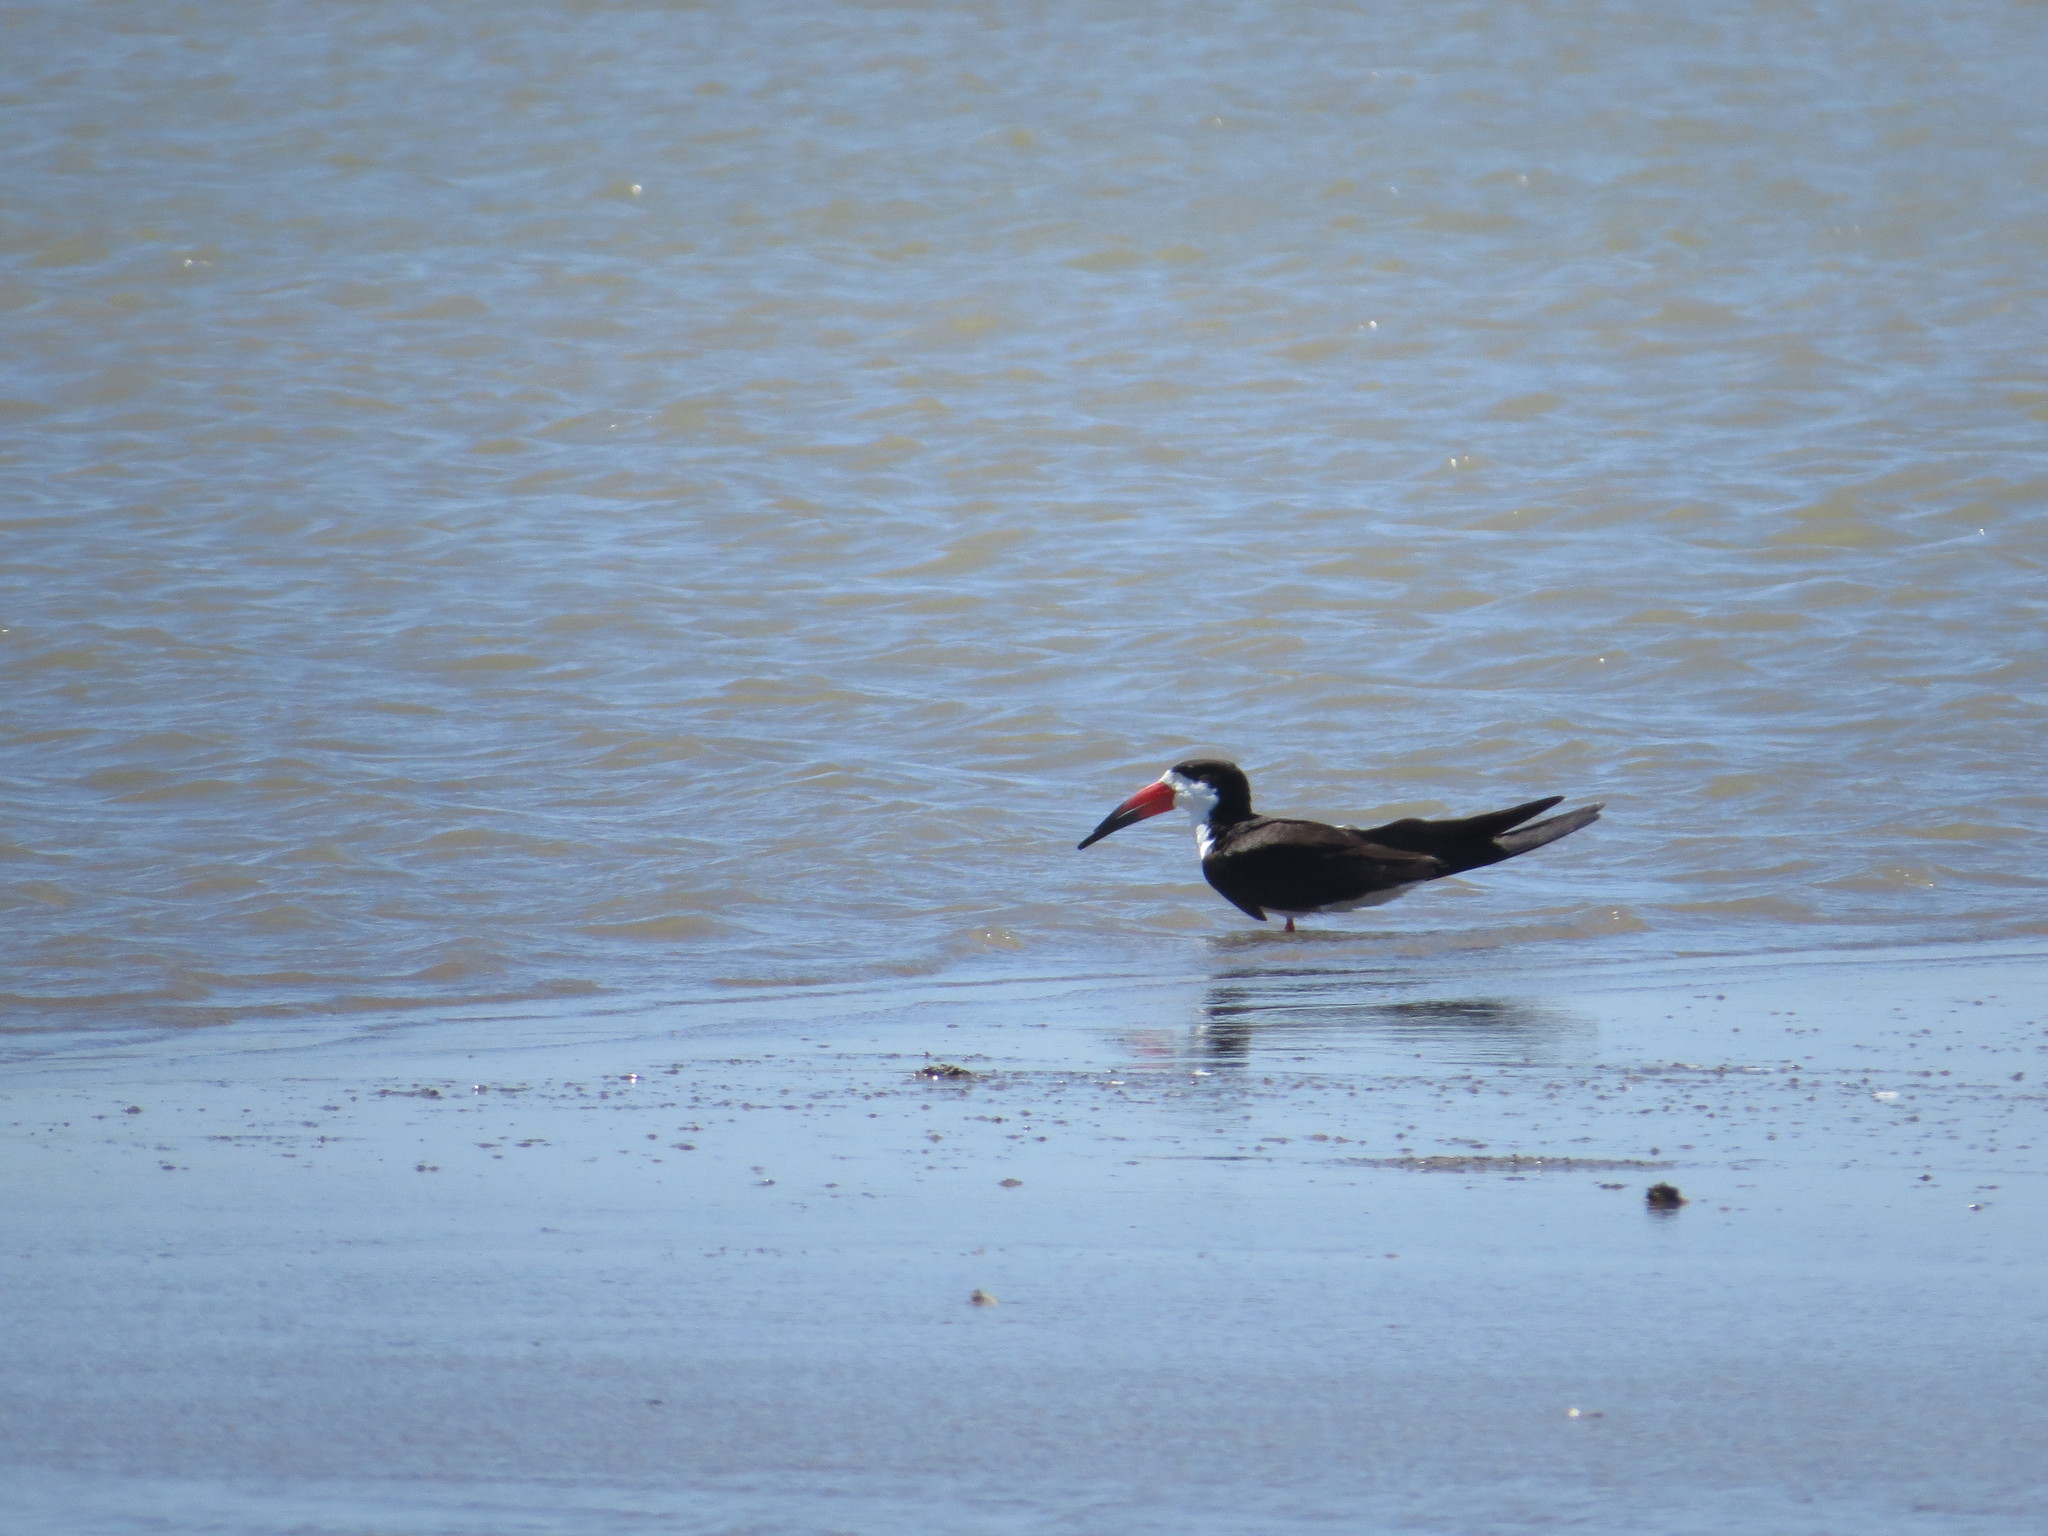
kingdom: Animalia
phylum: Chordata
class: Aves
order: Charadriiformes
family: Laridae
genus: Rynchops
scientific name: Rynchops niger
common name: Black skimmer
